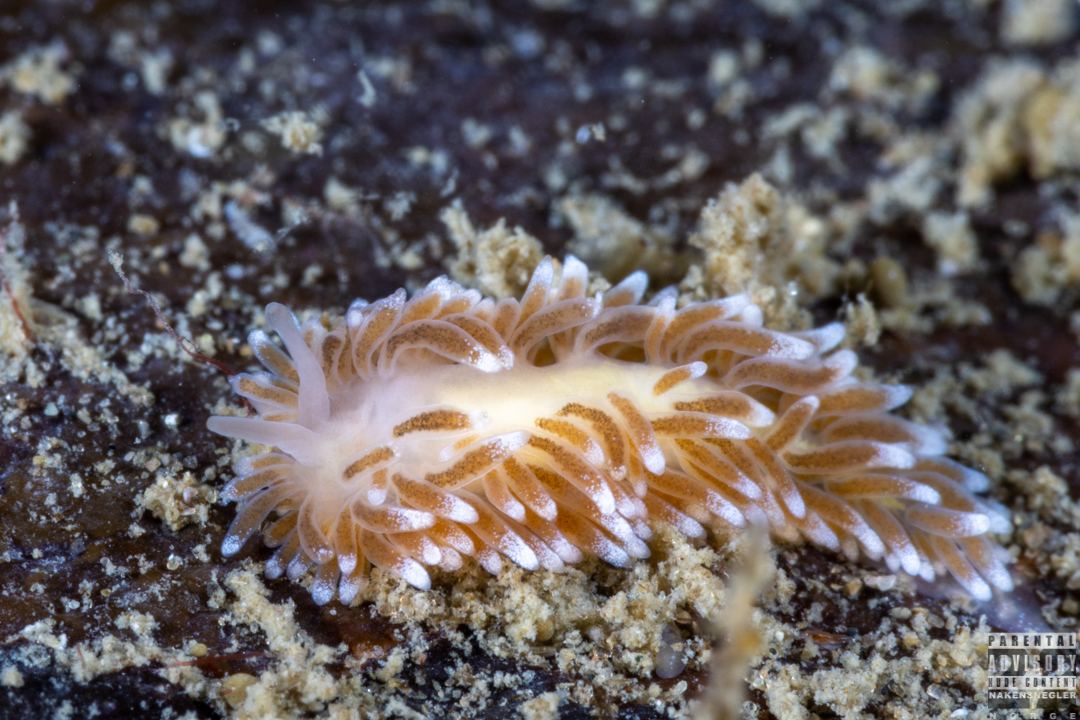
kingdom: Animalia
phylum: Mollusca
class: Gastropoda
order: Nudibranchia
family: Cuthonidae
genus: Cuthona
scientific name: Cuthona nana
